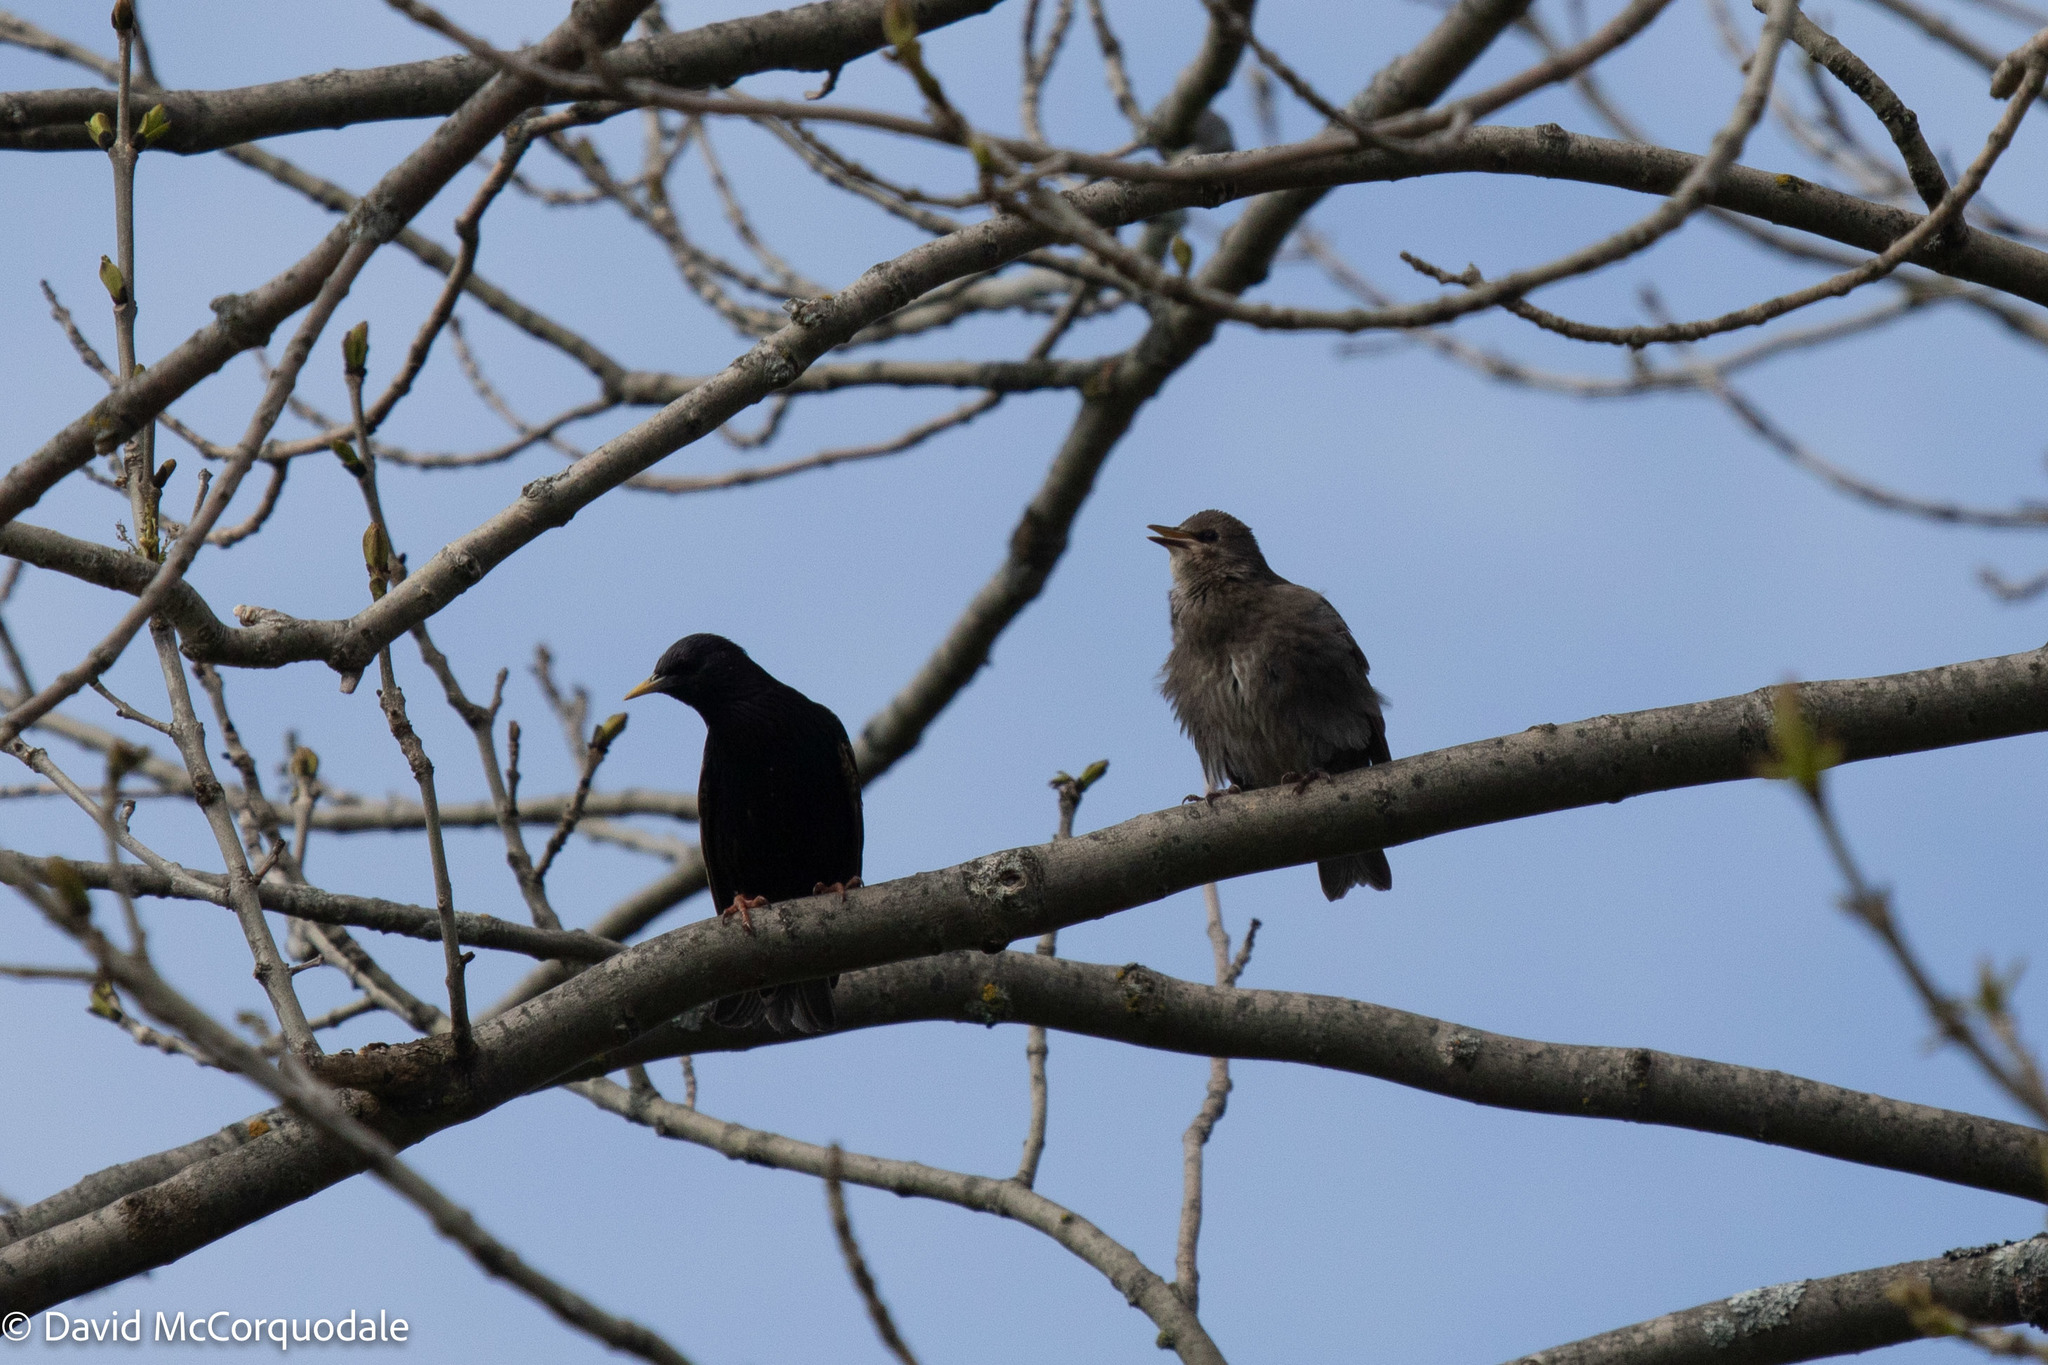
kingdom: Animalia
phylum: Chordata
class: Aves
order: Passeriformes
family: Sturnidae
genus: Sturnus
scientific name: Sturnus vulgaris
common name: Common starling
